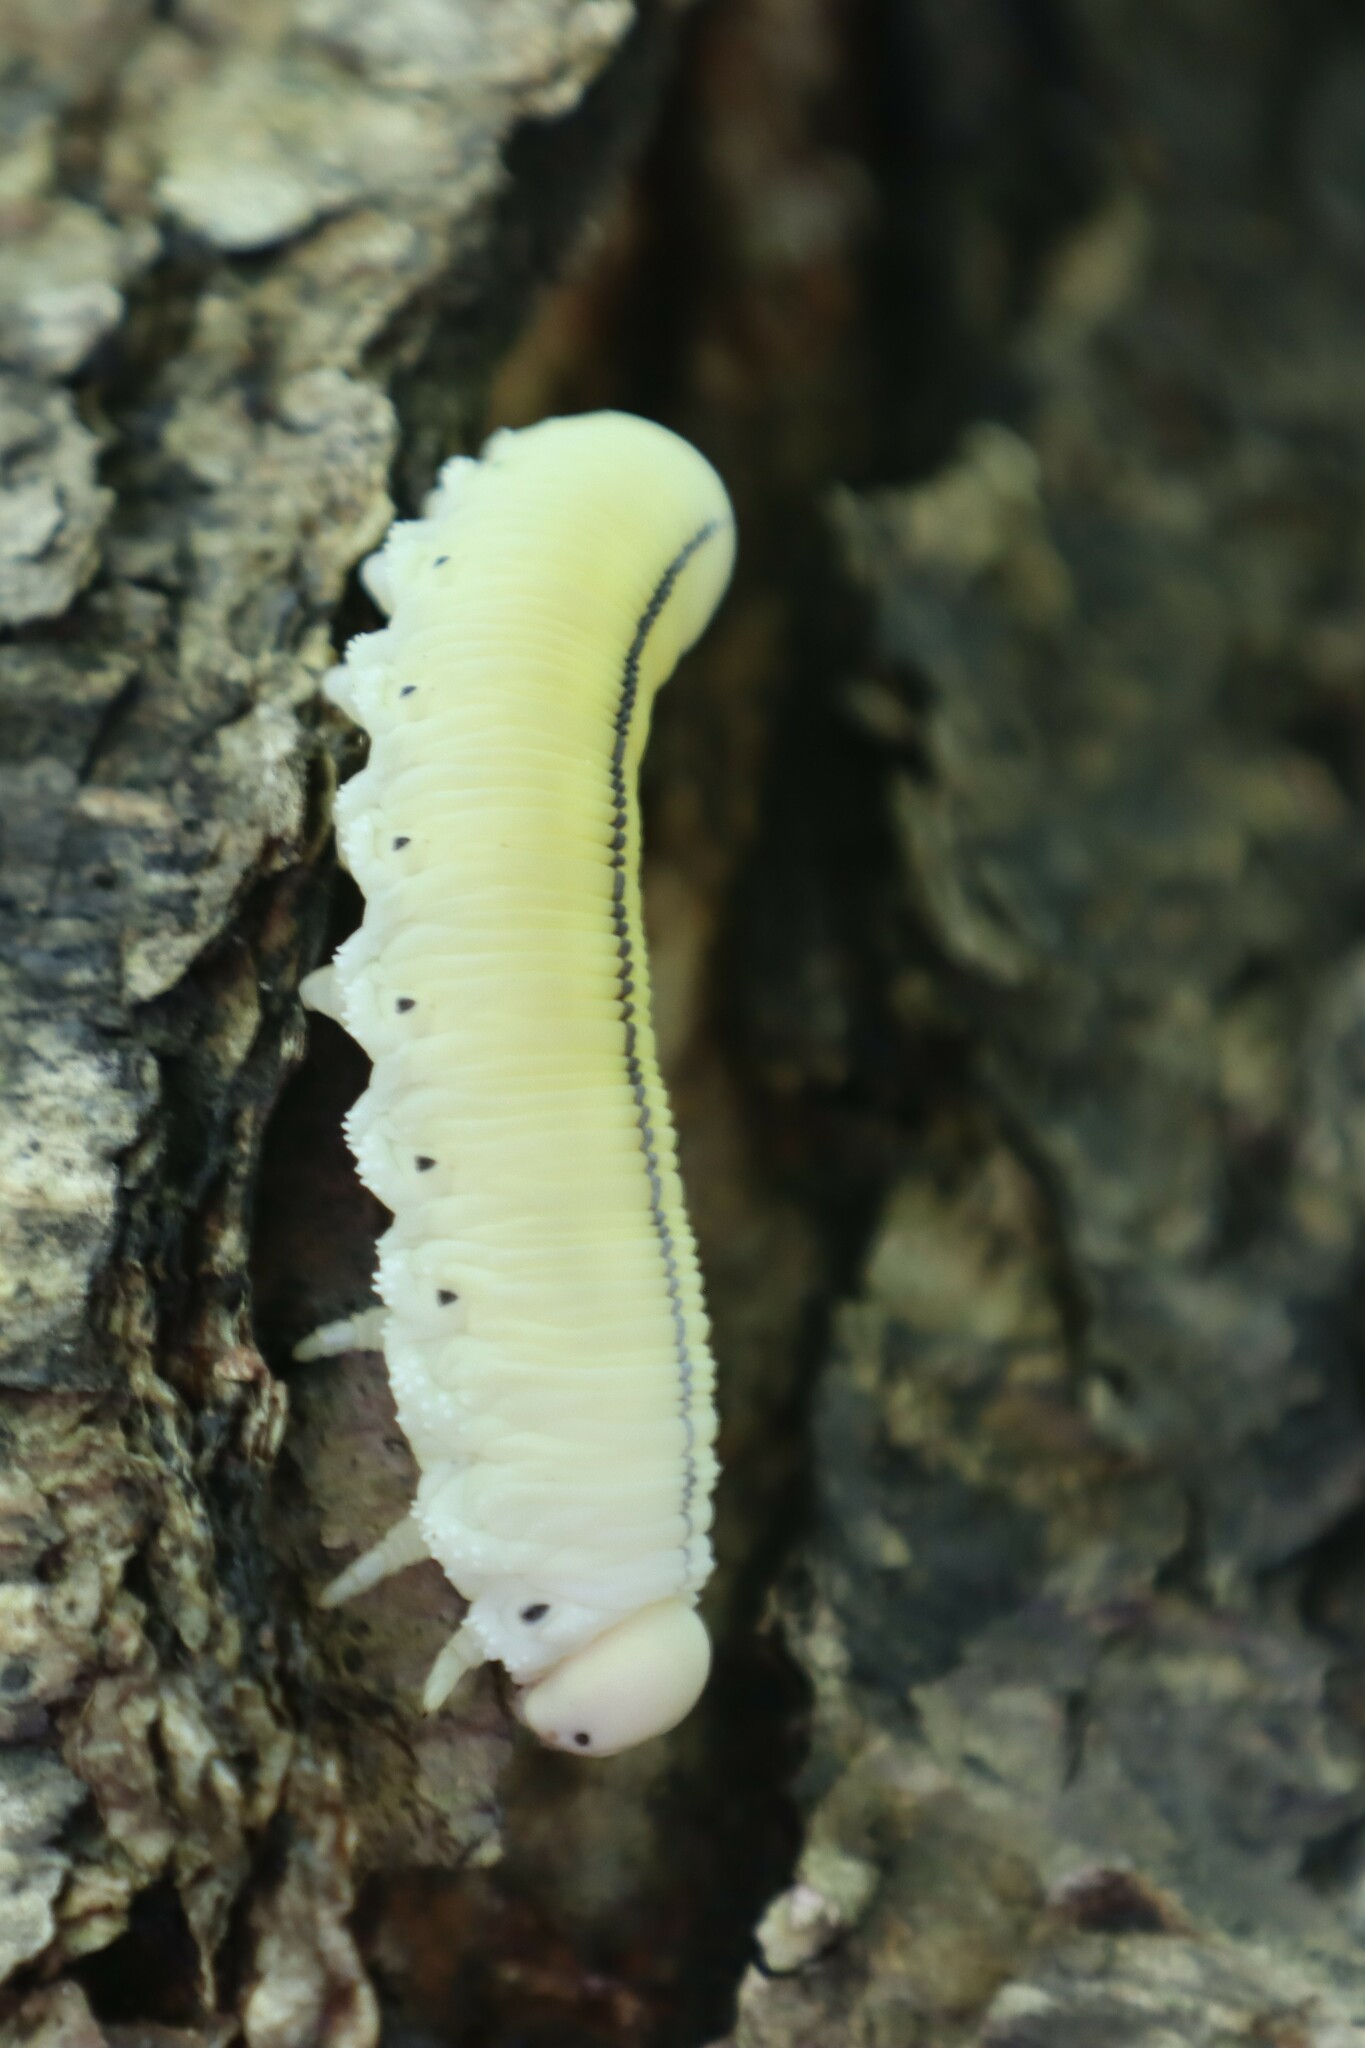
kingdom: Animalia
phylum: Arthropoda
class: Insecta
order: Hymenoptera
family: Cimbicidae
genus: Cimbex
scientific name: Cimbex americana
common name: Elm sawfly
